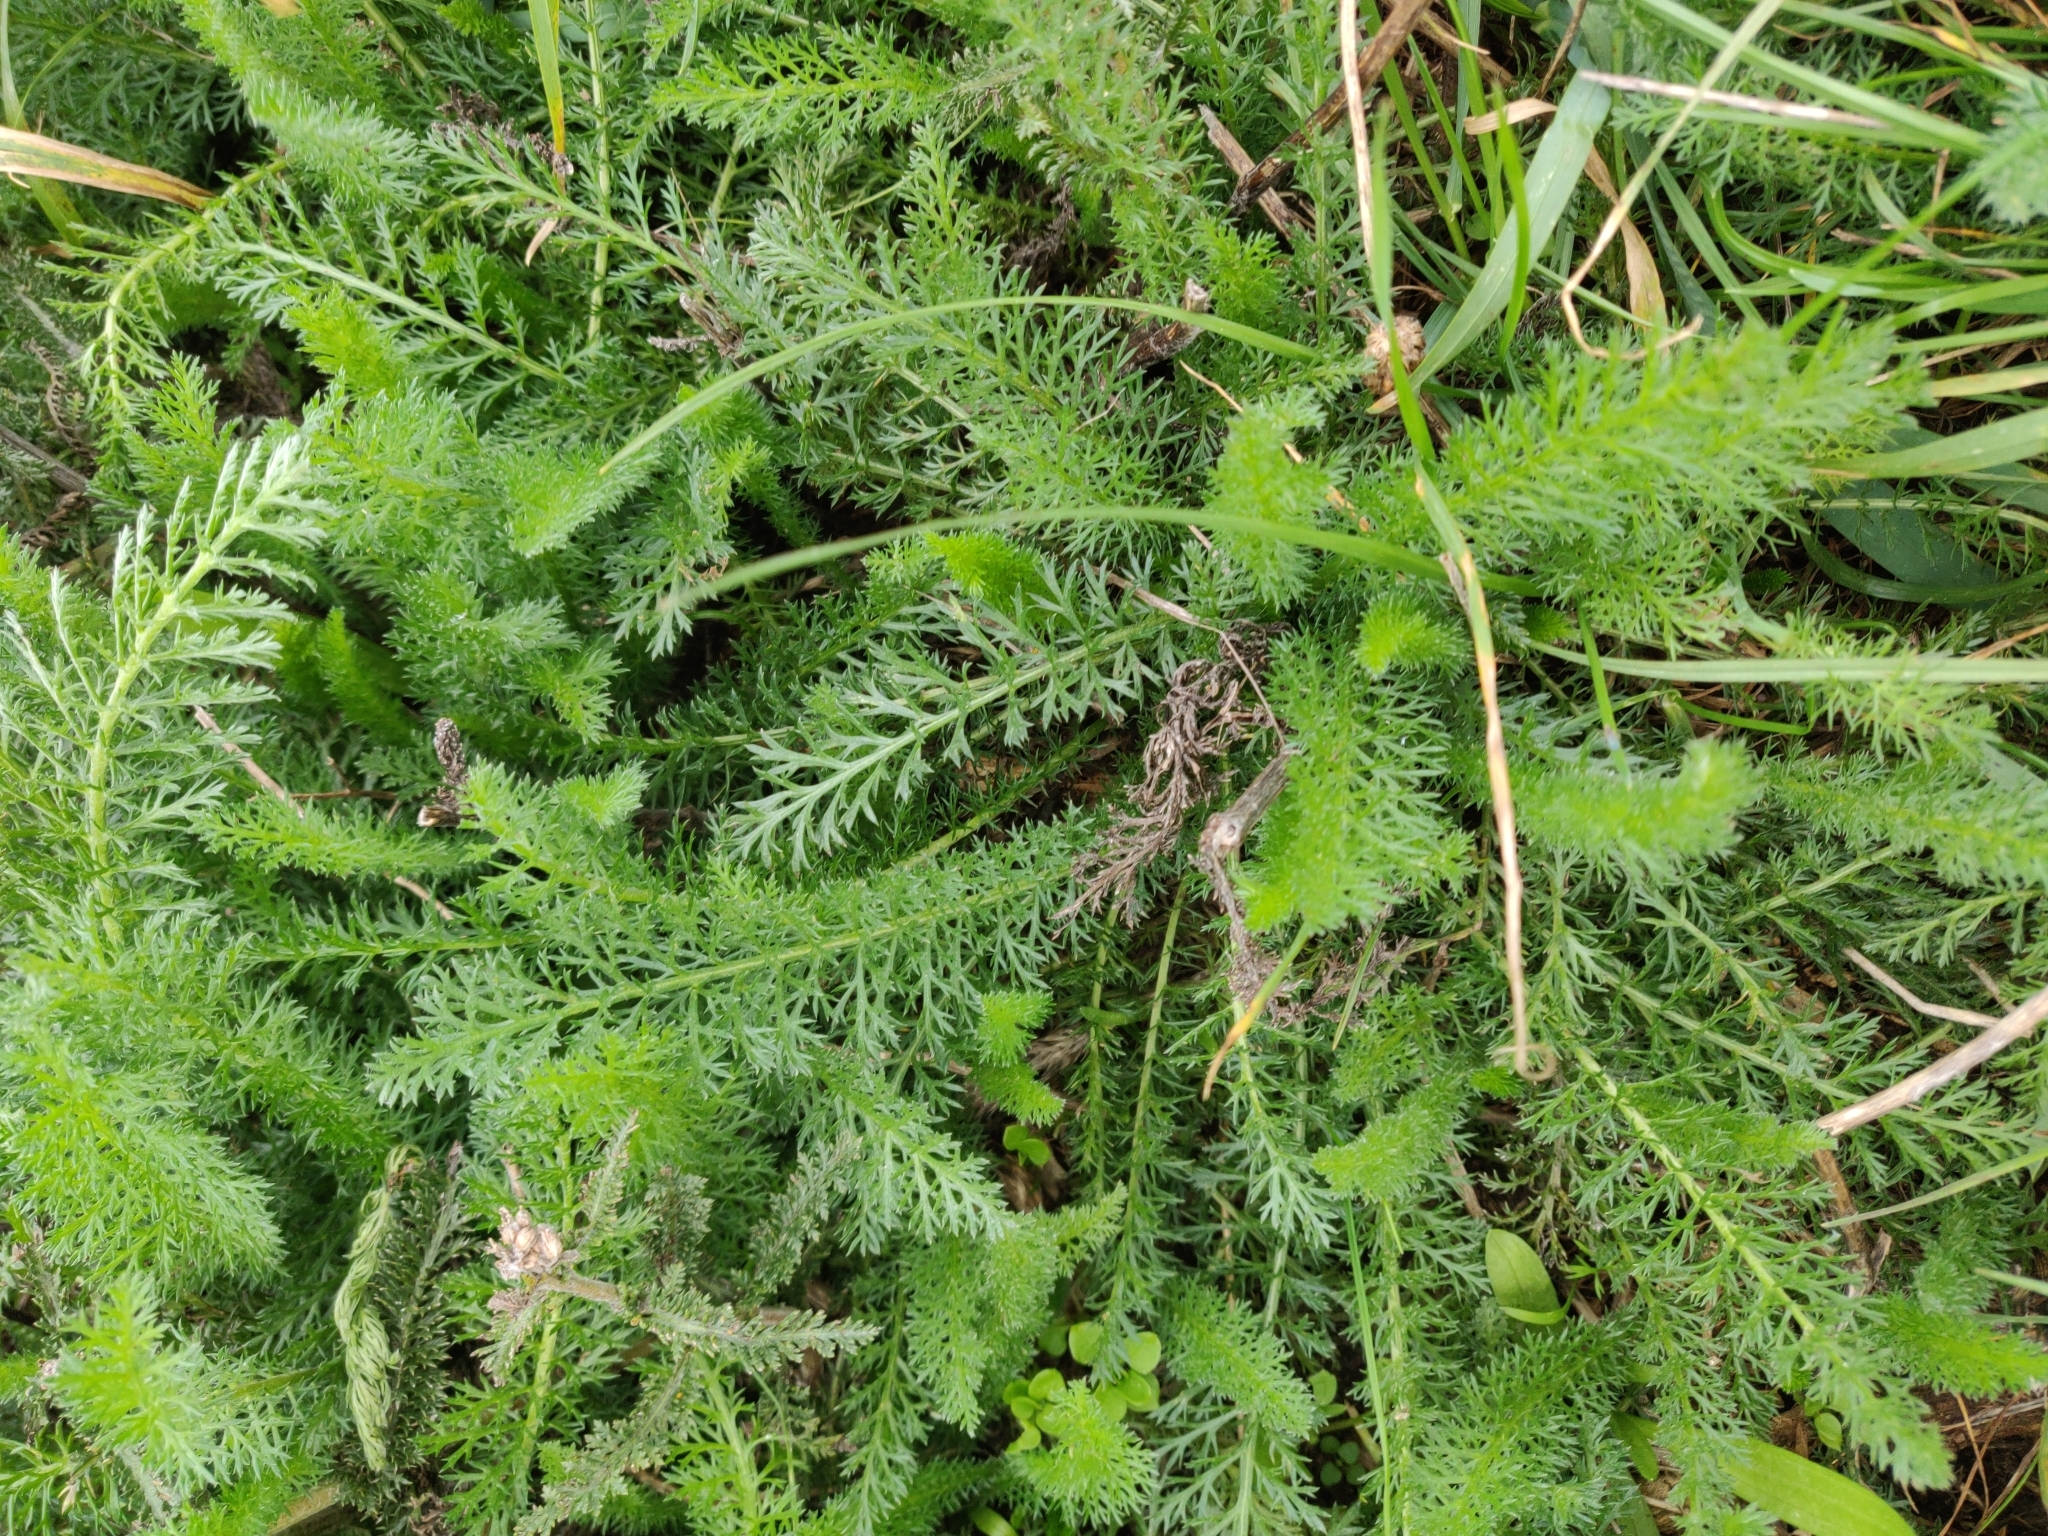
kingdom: Plantae
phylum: Tracheophyta
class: Magnoliopsida
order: Asterales
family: Asteraceae
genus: Achillea
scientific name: Achillea millefolium
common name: Yarrow
